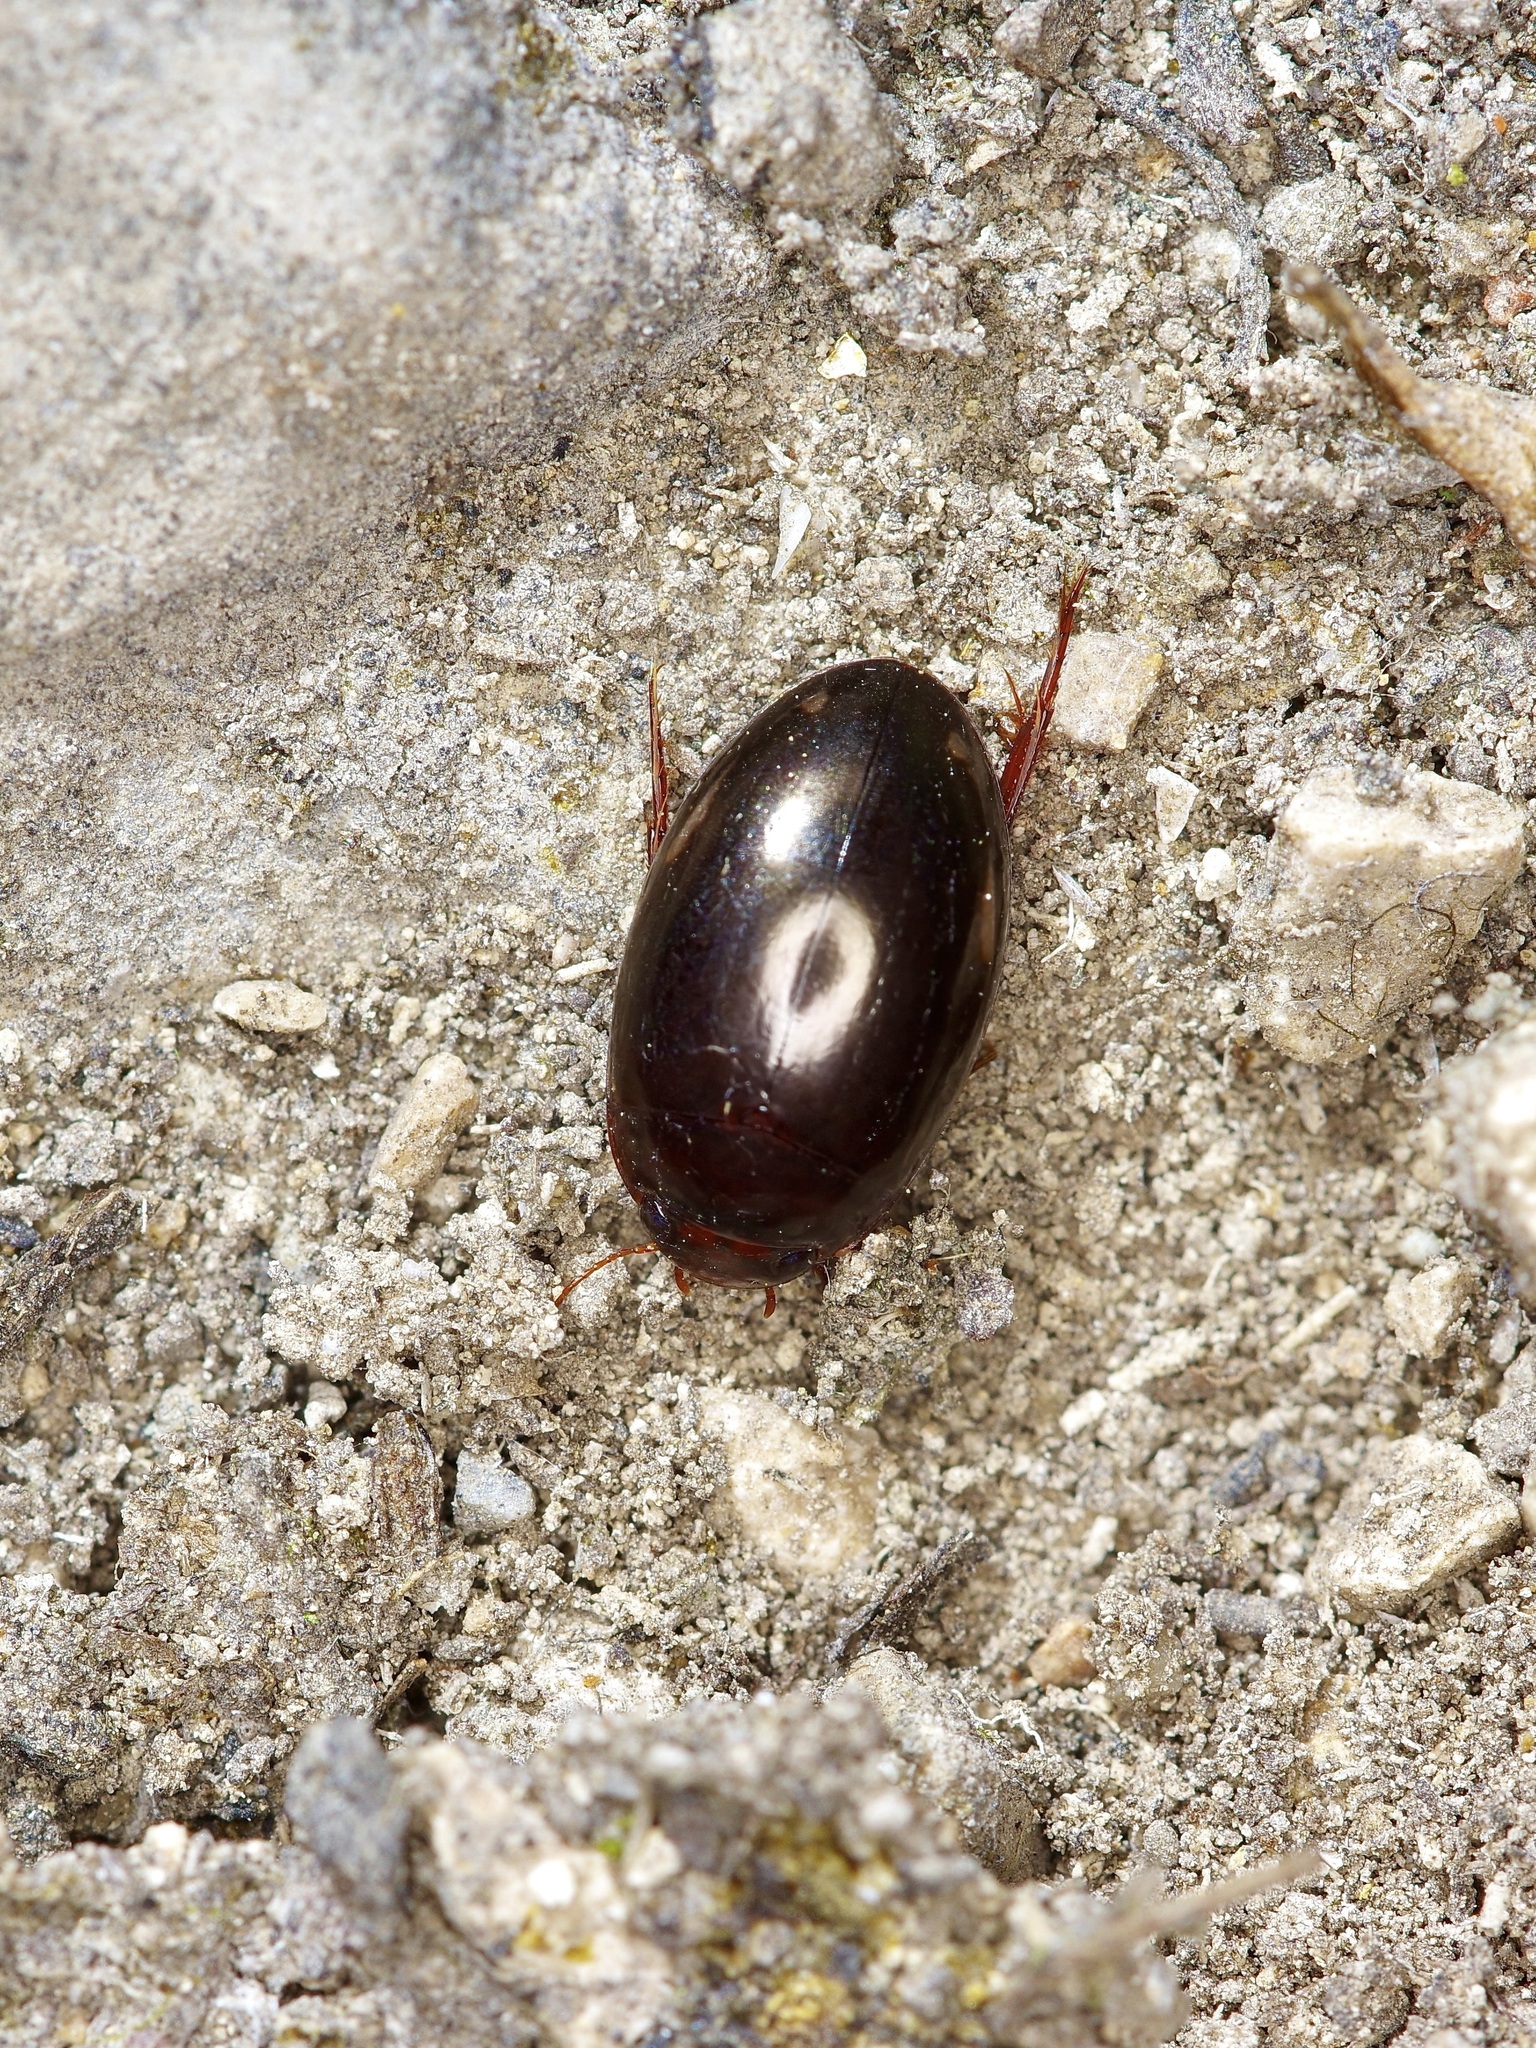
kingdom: Animalia
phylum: Arthropoda
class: Insecta
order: Coleoptera
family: Dytiscidae
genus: Platambus
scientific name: Platambus
